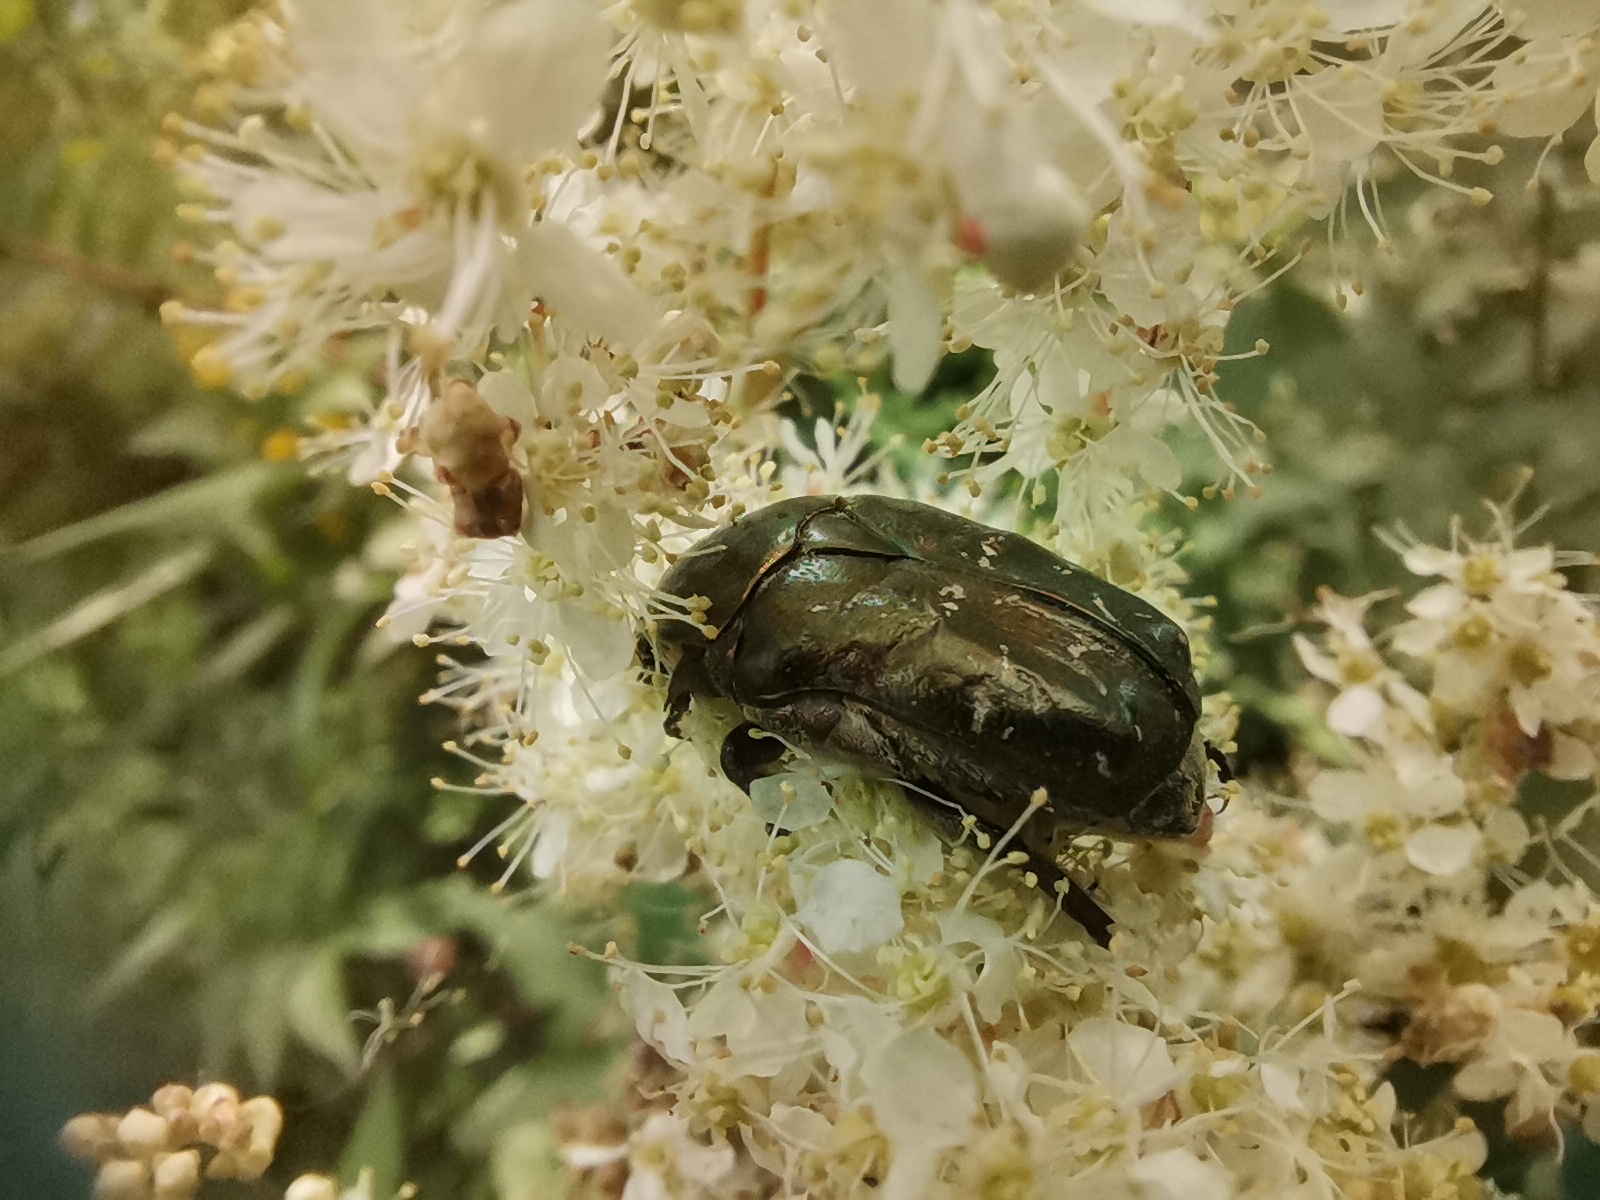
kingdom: Animalia
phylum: Arthropoda
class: Insecta
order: Coleoptera
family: Scarabaeidae
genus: Protaetia
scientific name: Protaetia cuprea
